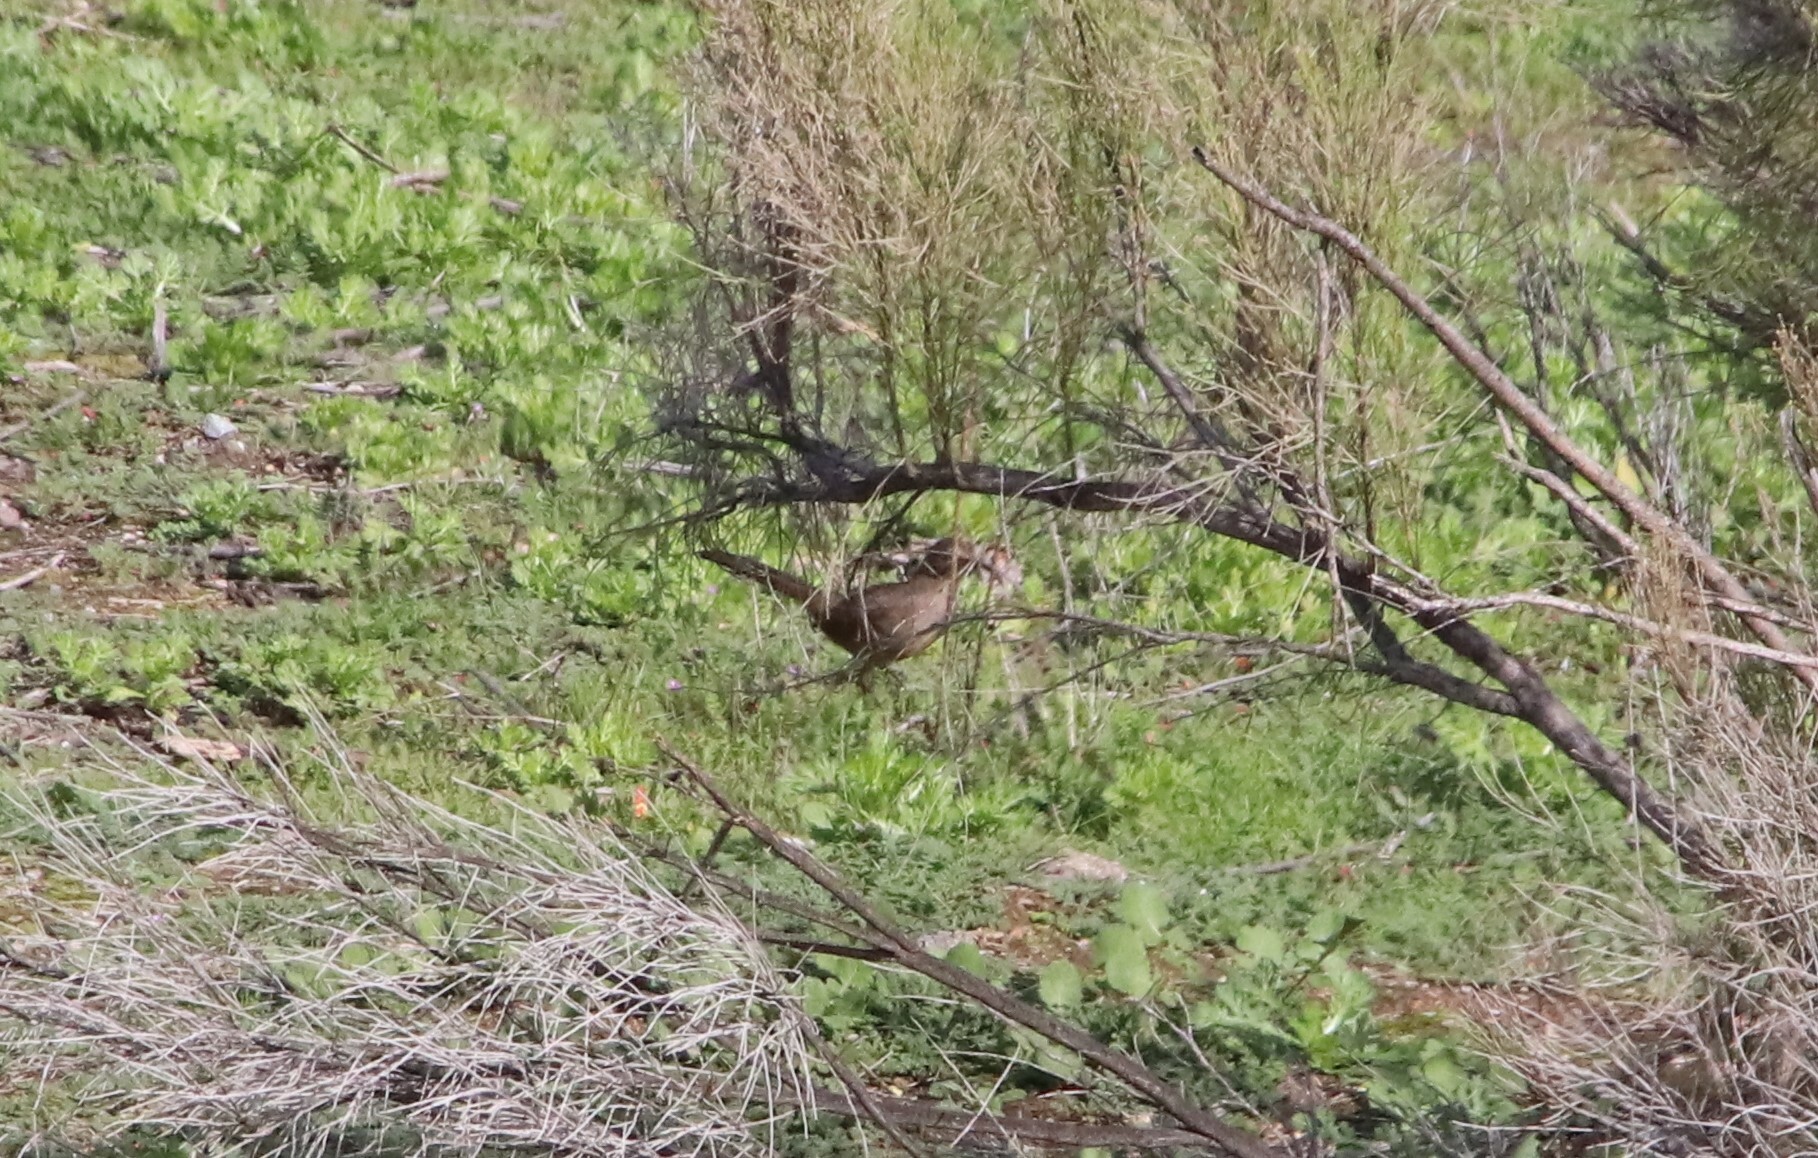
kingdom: Animalia
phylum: Chordata
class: Aves
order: Passeriformes
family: Mimidae
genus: Toxostoma
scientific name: Toxostoma redivivum
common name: California thrasher
